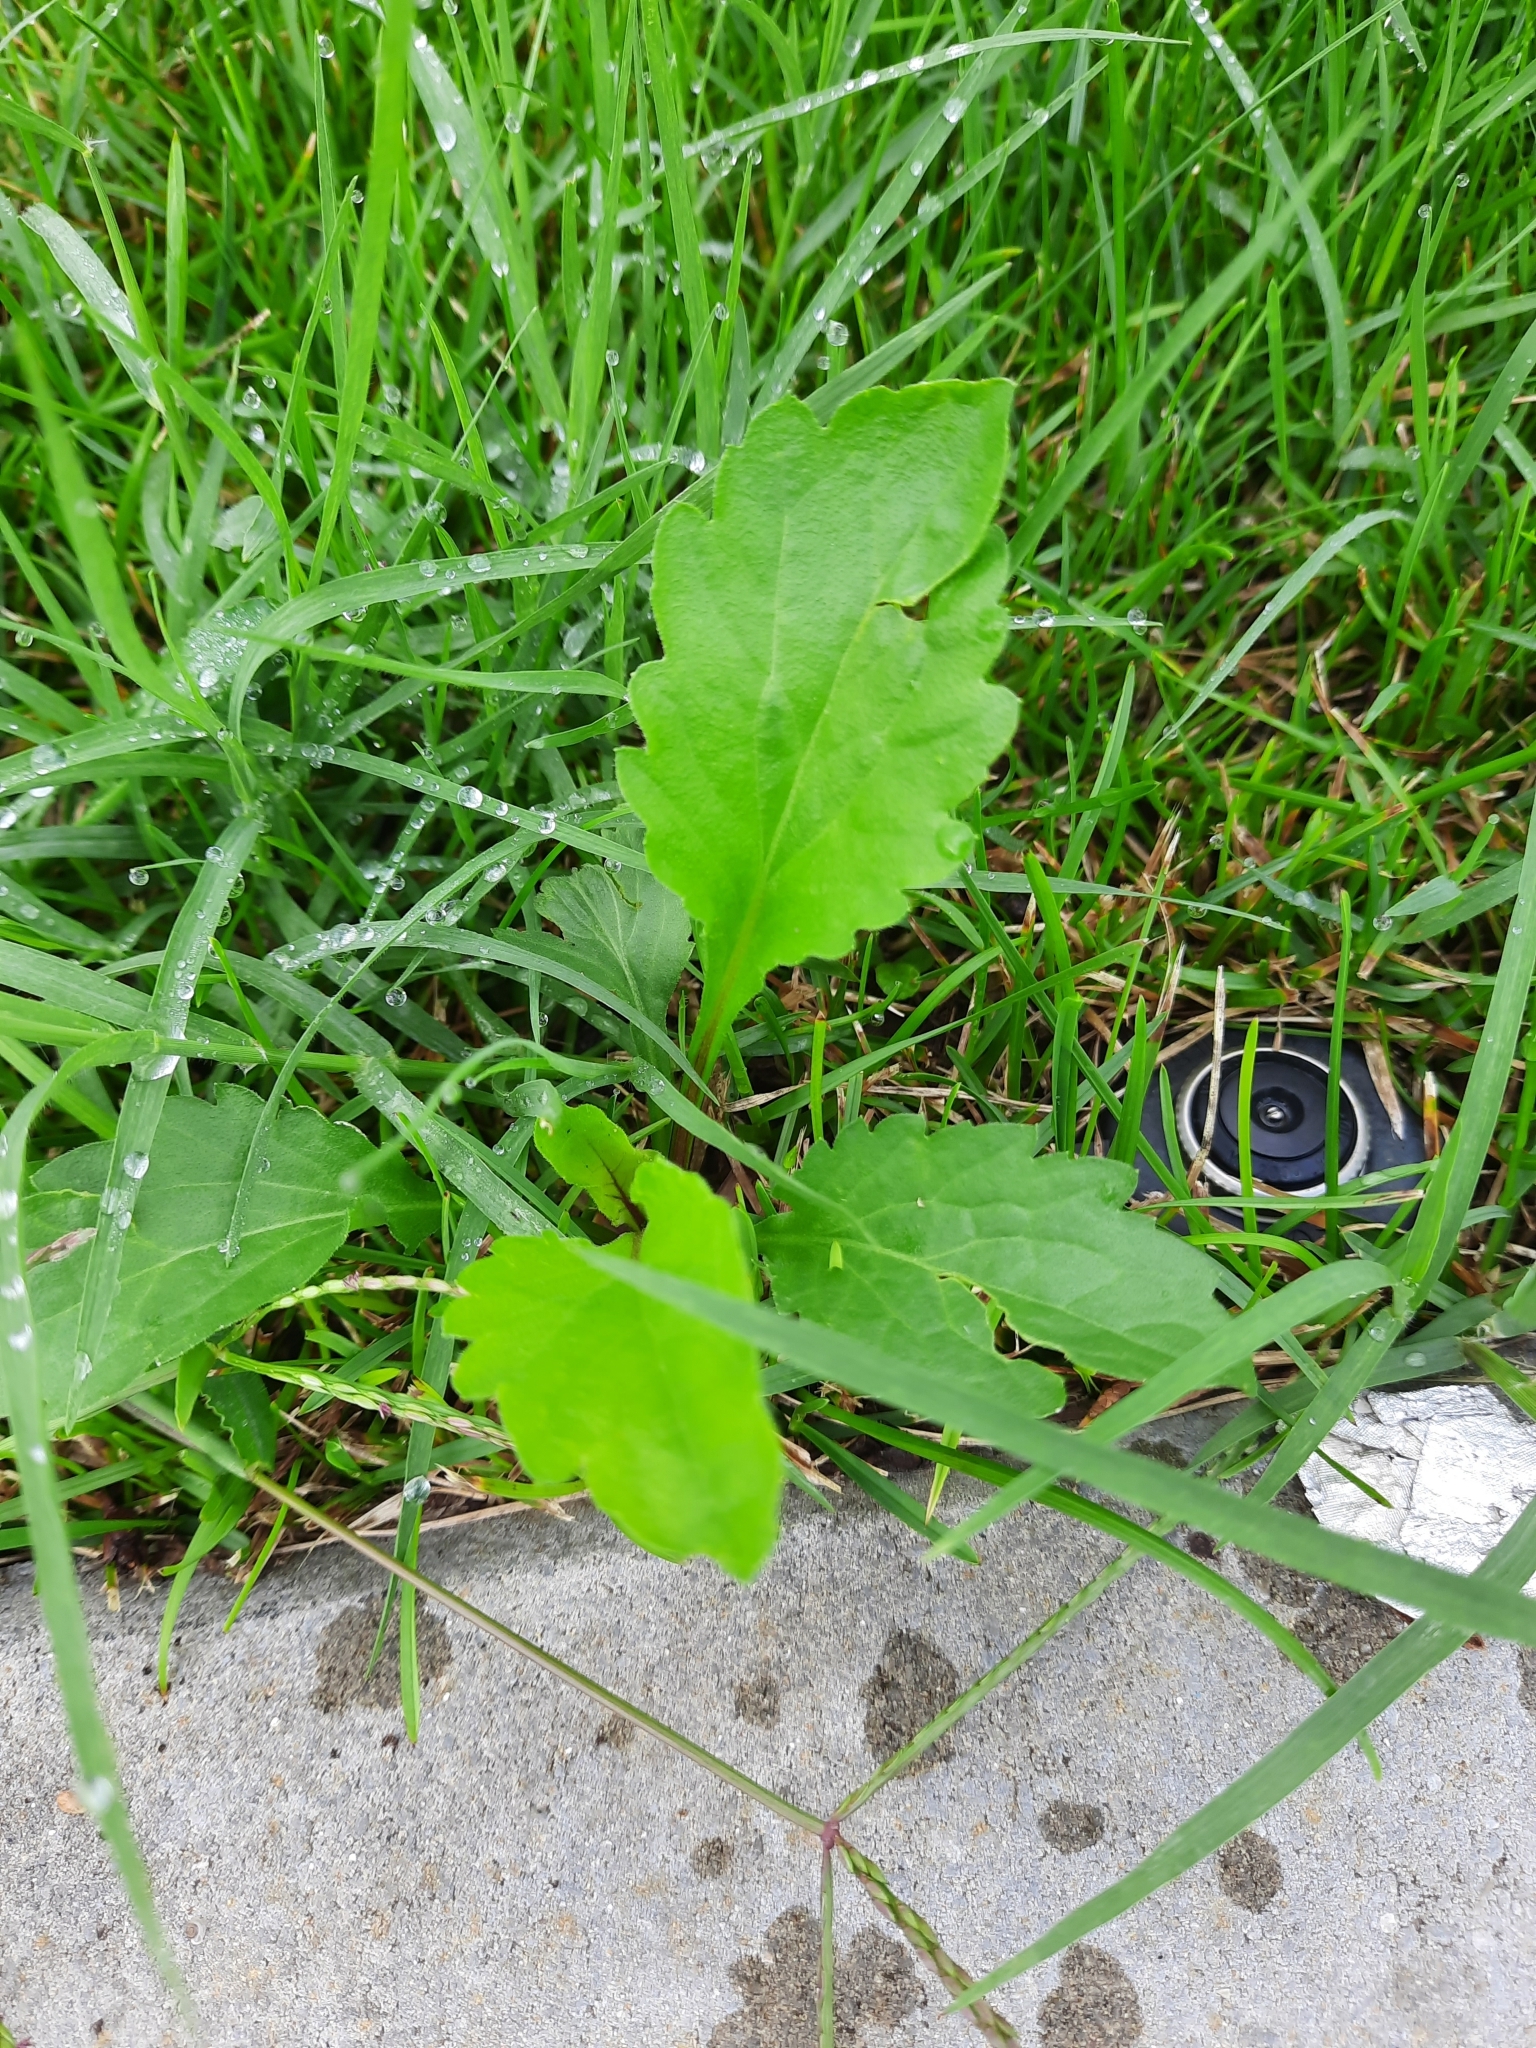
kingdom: Plantae
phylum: Tracheophyta
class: Magnoliopsida
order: Asterales
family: Asteraceae
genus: Erigeron
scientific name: Erigeron annuus
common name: Tall fleabane
